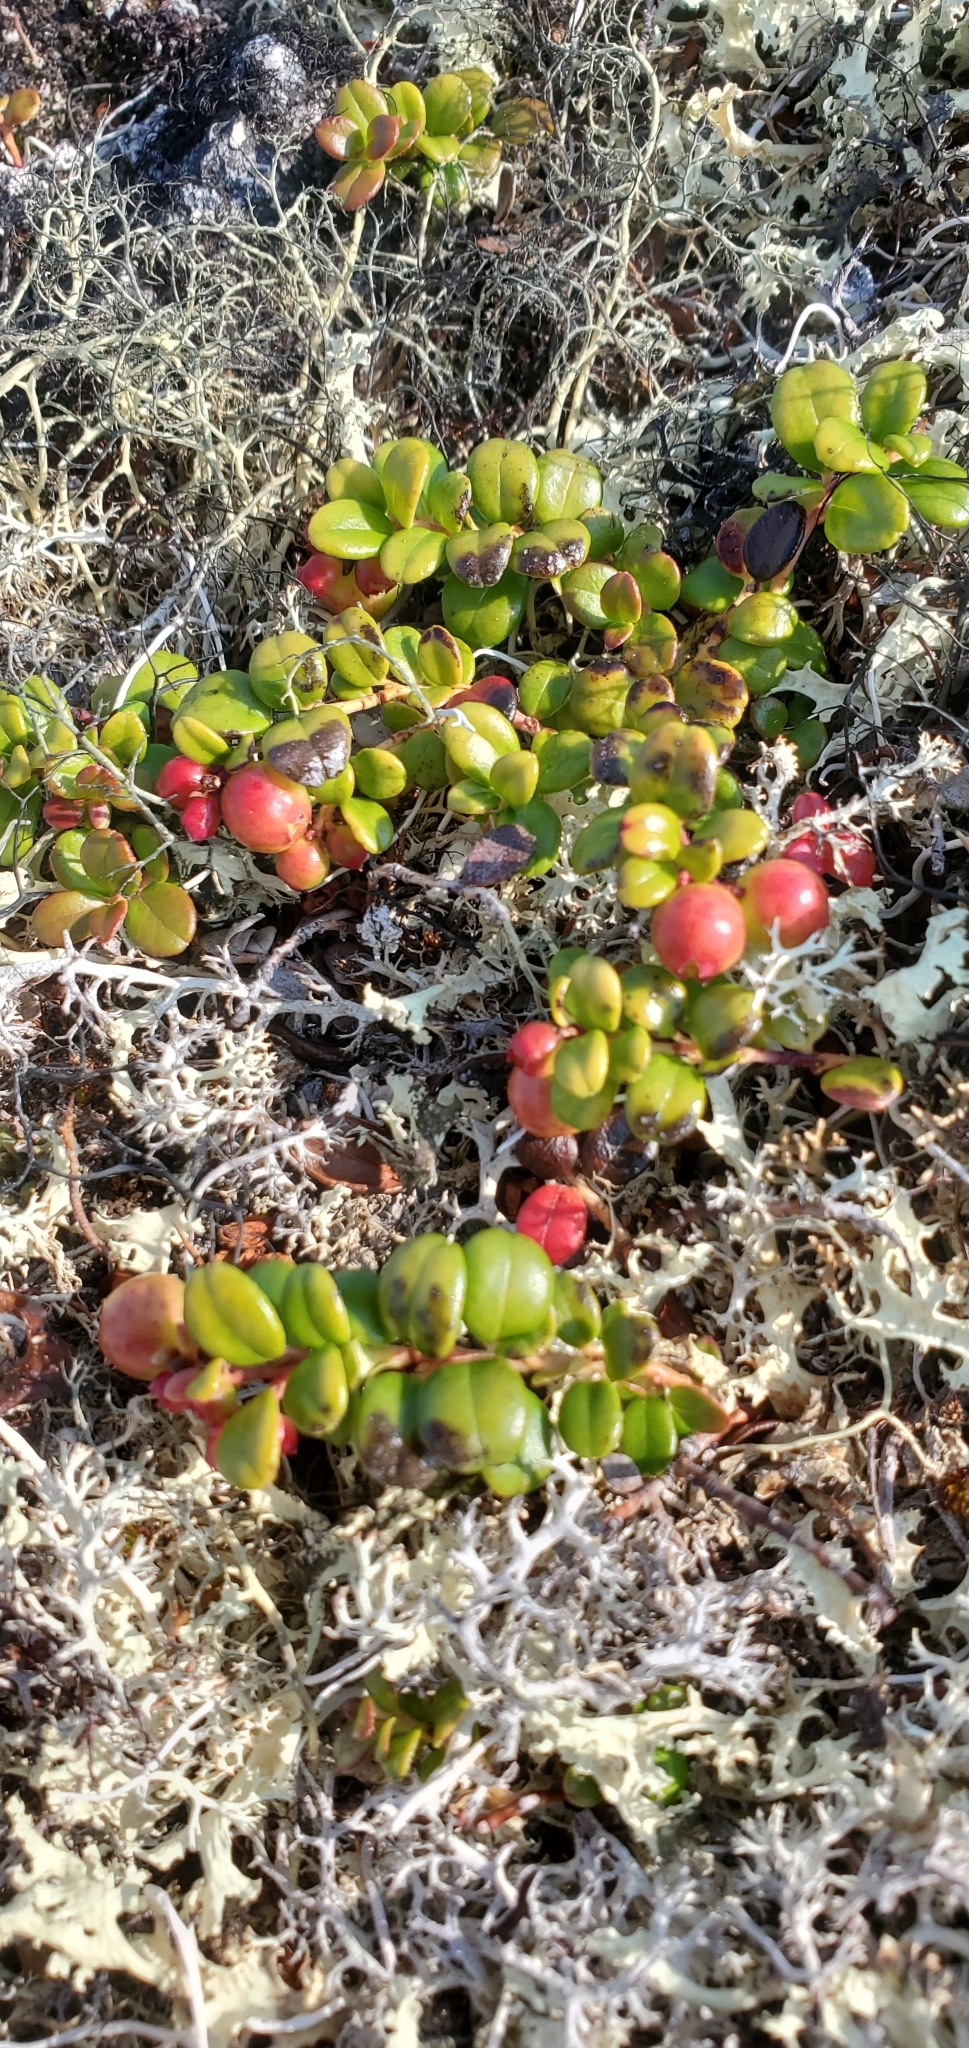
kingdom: Plantae
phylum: Tracheophyta
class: Magnoliopsida
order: Ericales
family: Ericaceae
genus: Vaccinium
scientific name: Vaccinium vitis-idaea
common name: Cowberry
